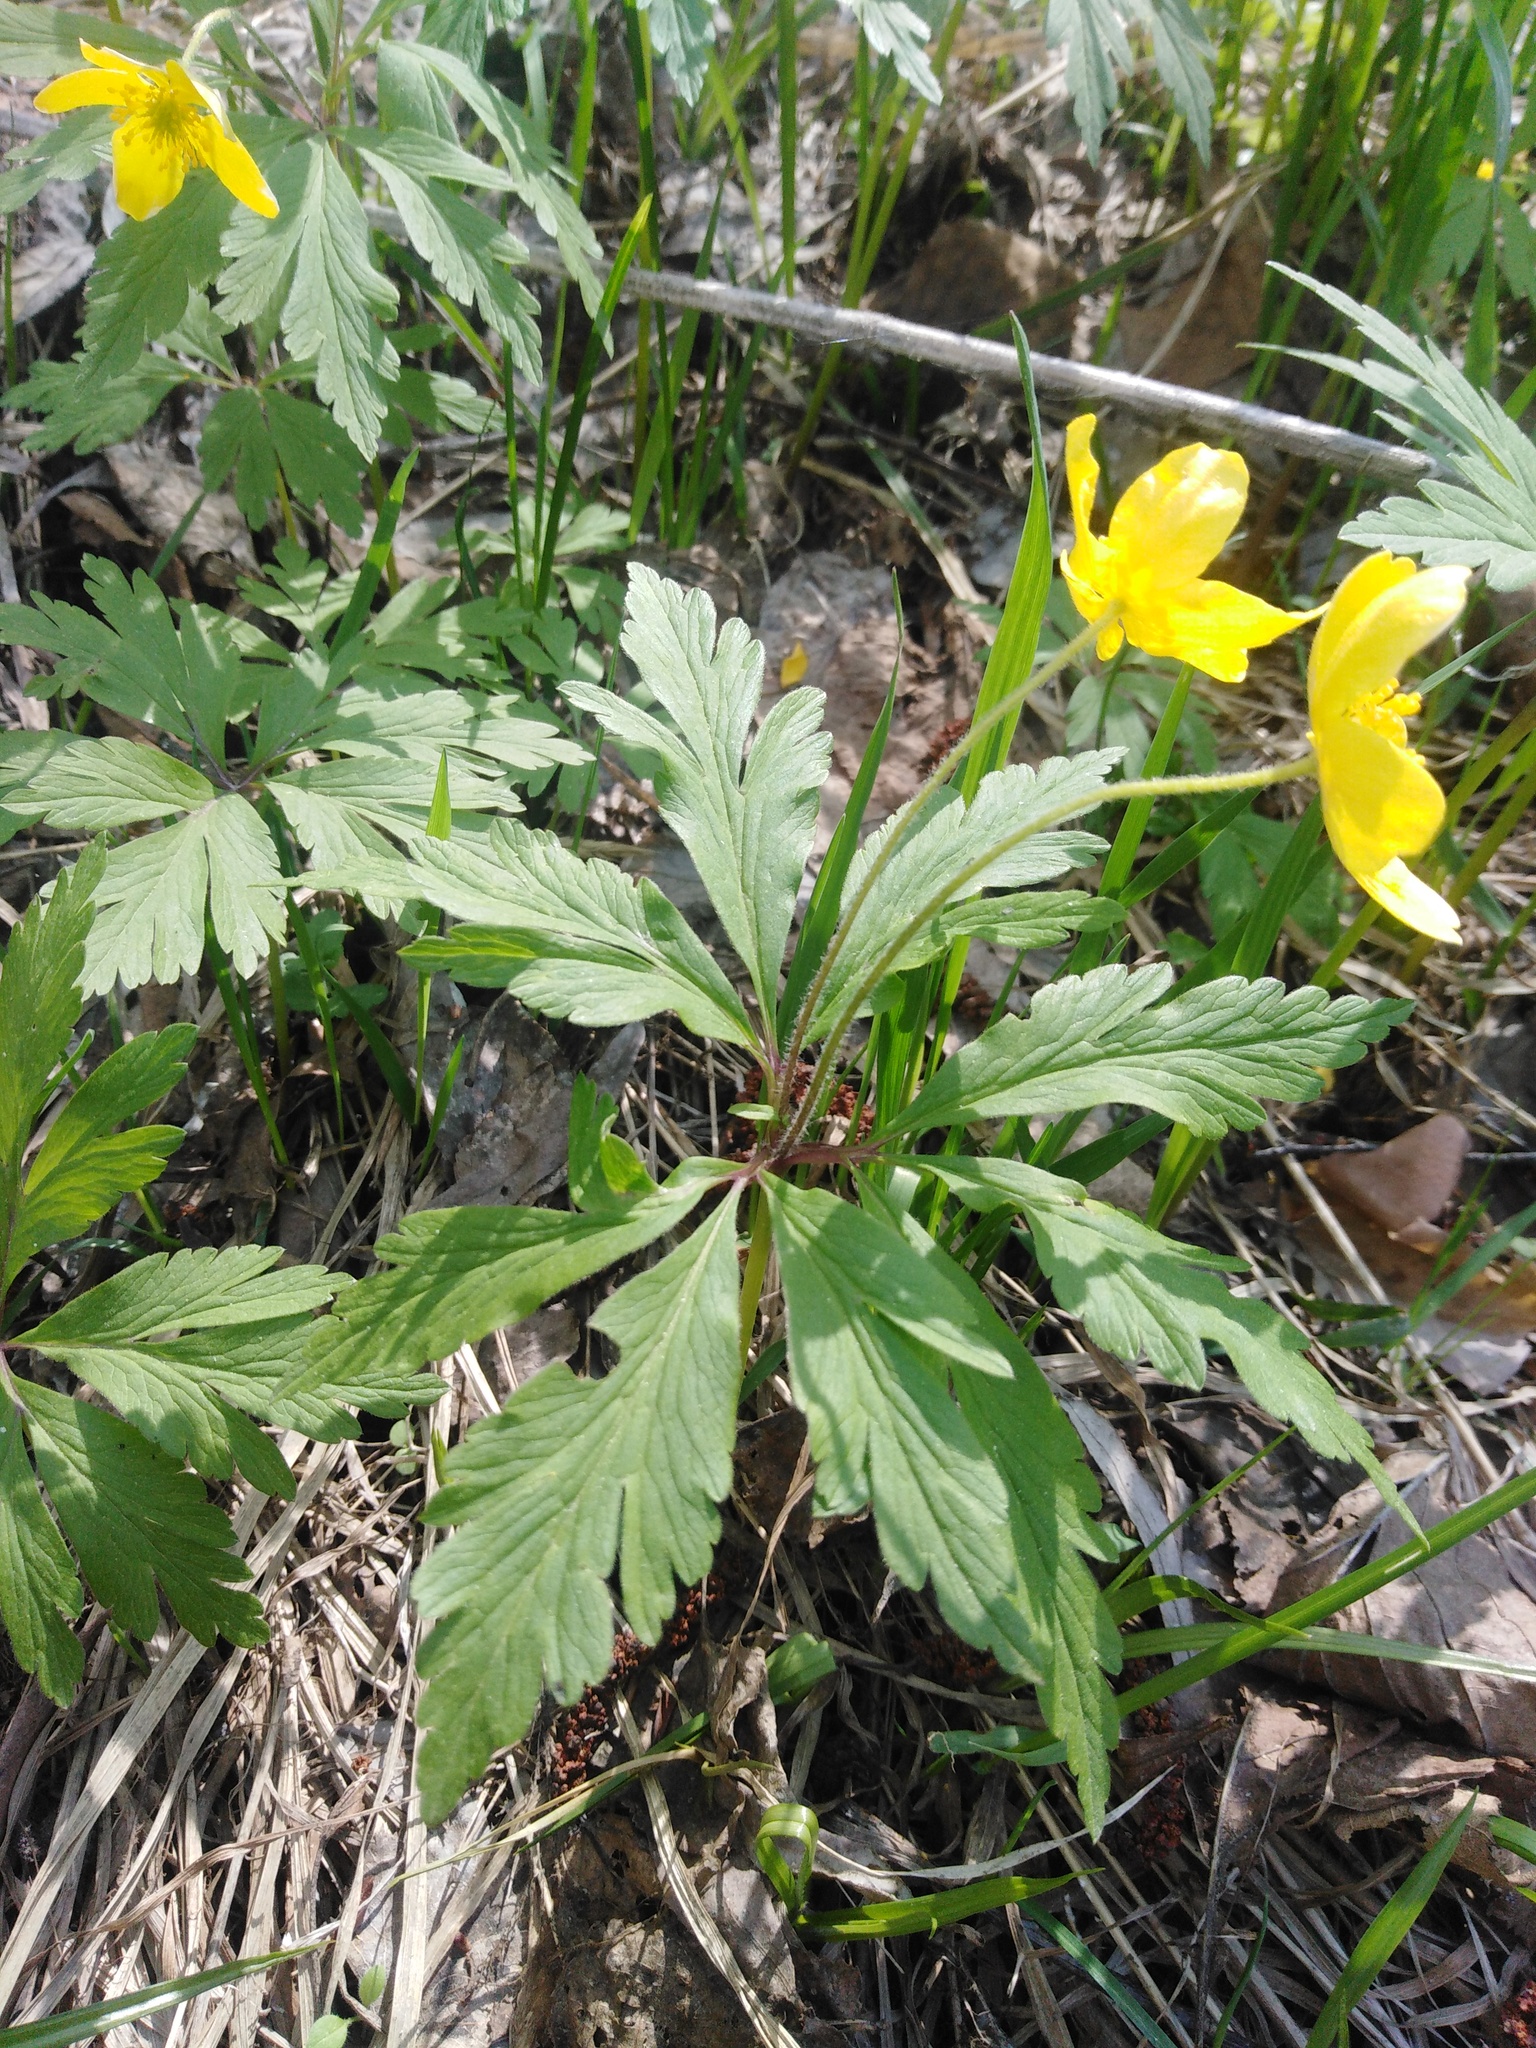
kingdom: Plantae
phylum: Tracheophyta
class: Magnoliopsida
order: Ranunculales
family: Ranunculaceae
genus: Anemone
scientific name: Anemone ranunculoides
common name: Yellow anemone
